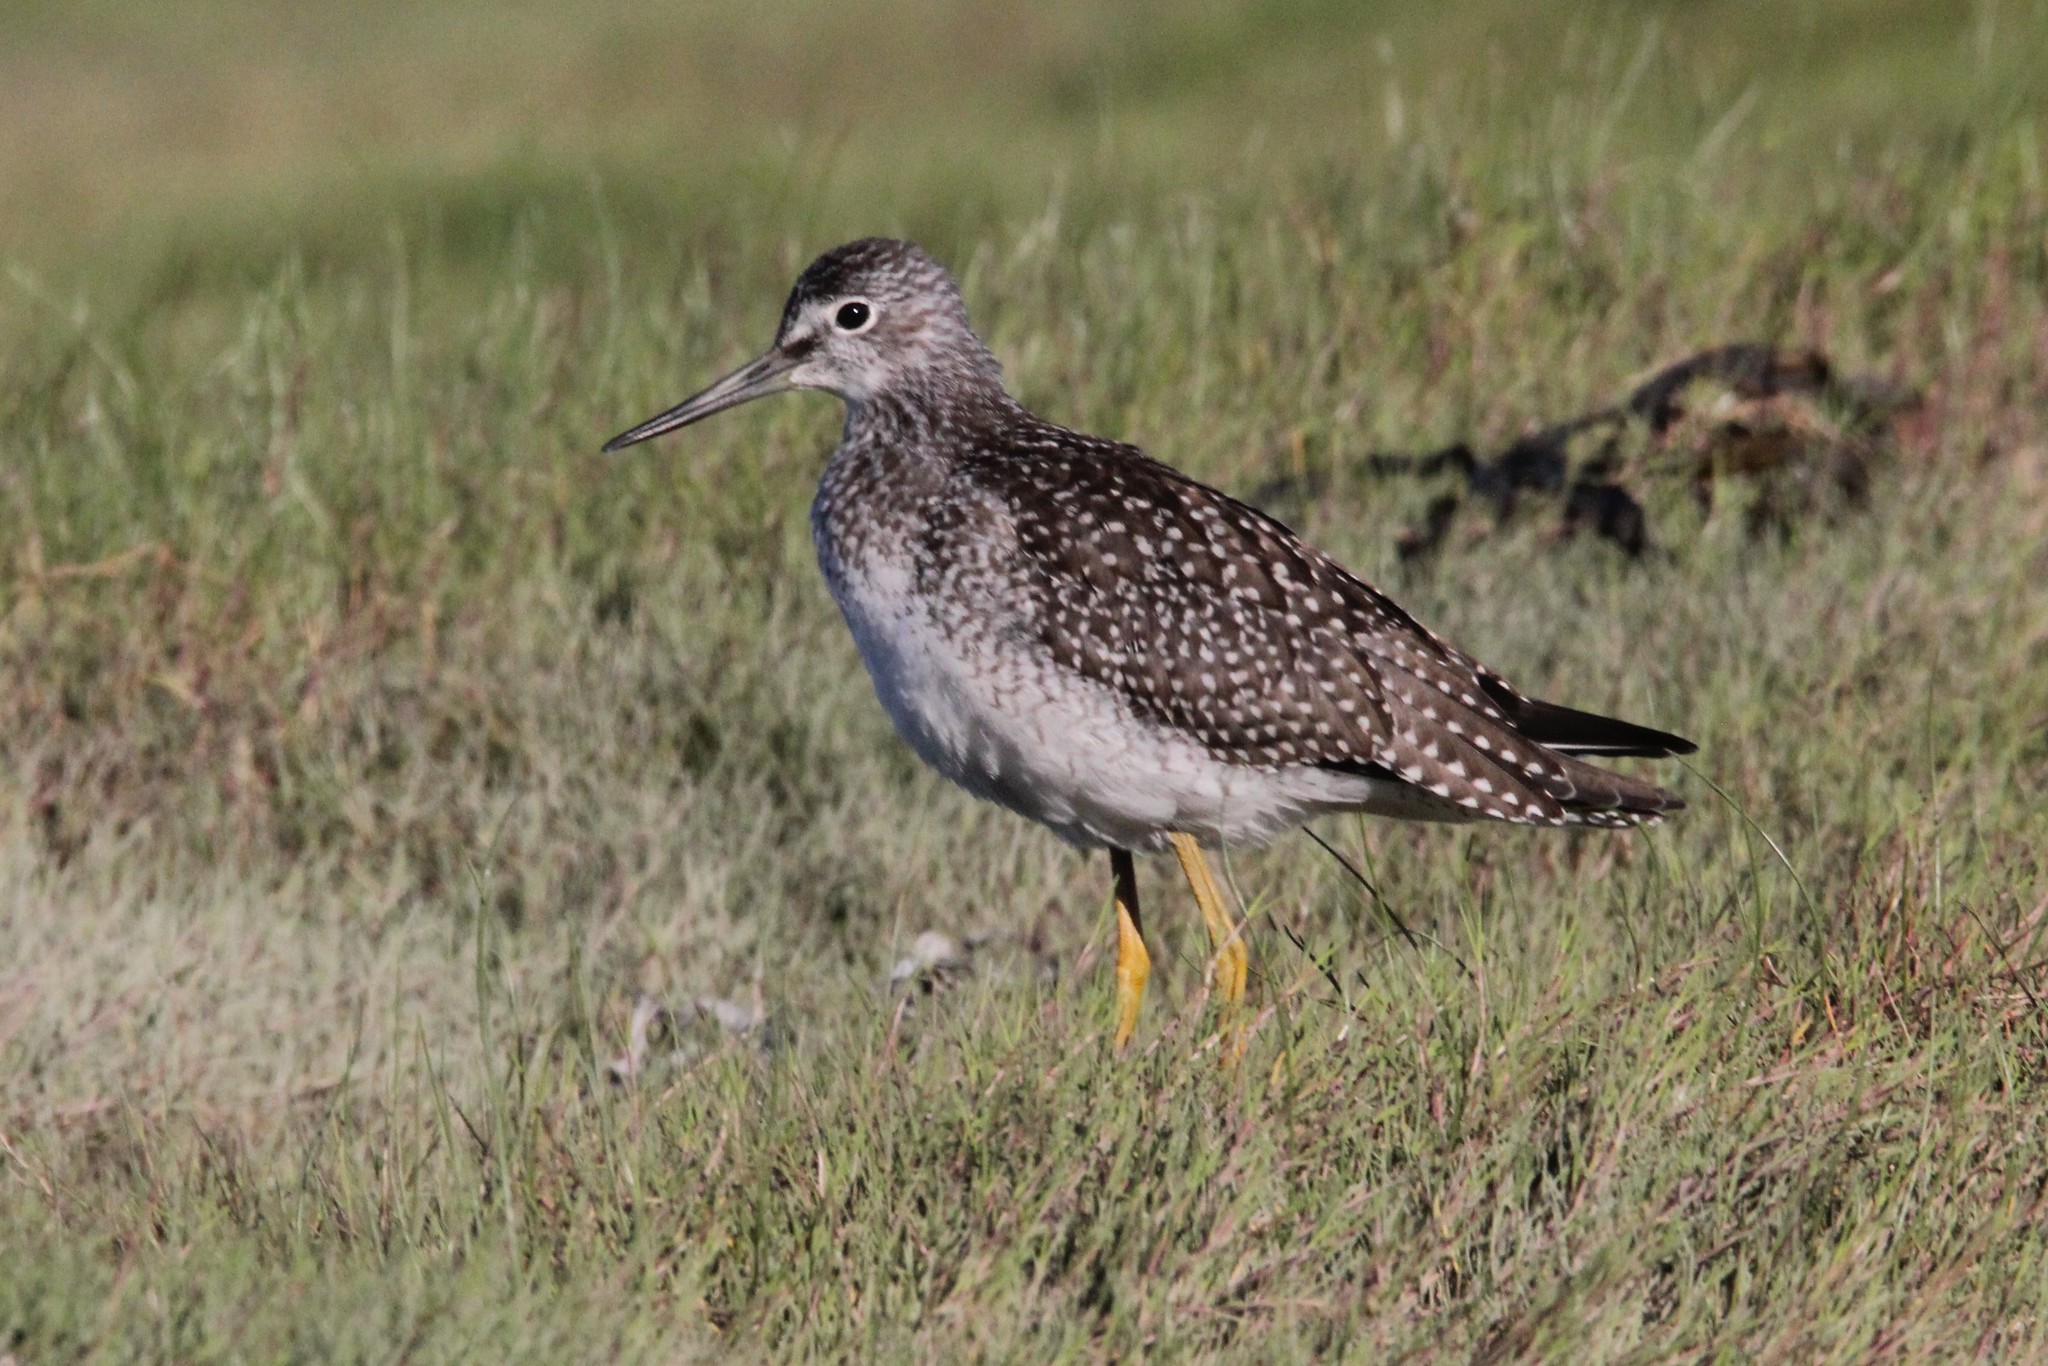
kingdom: Animalia
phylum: Chordata
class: Aves
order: Charadriiformes
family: Scolopacidae
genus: Tringa
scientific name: Tringa melanoleuca
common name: Greater yellowlegs
